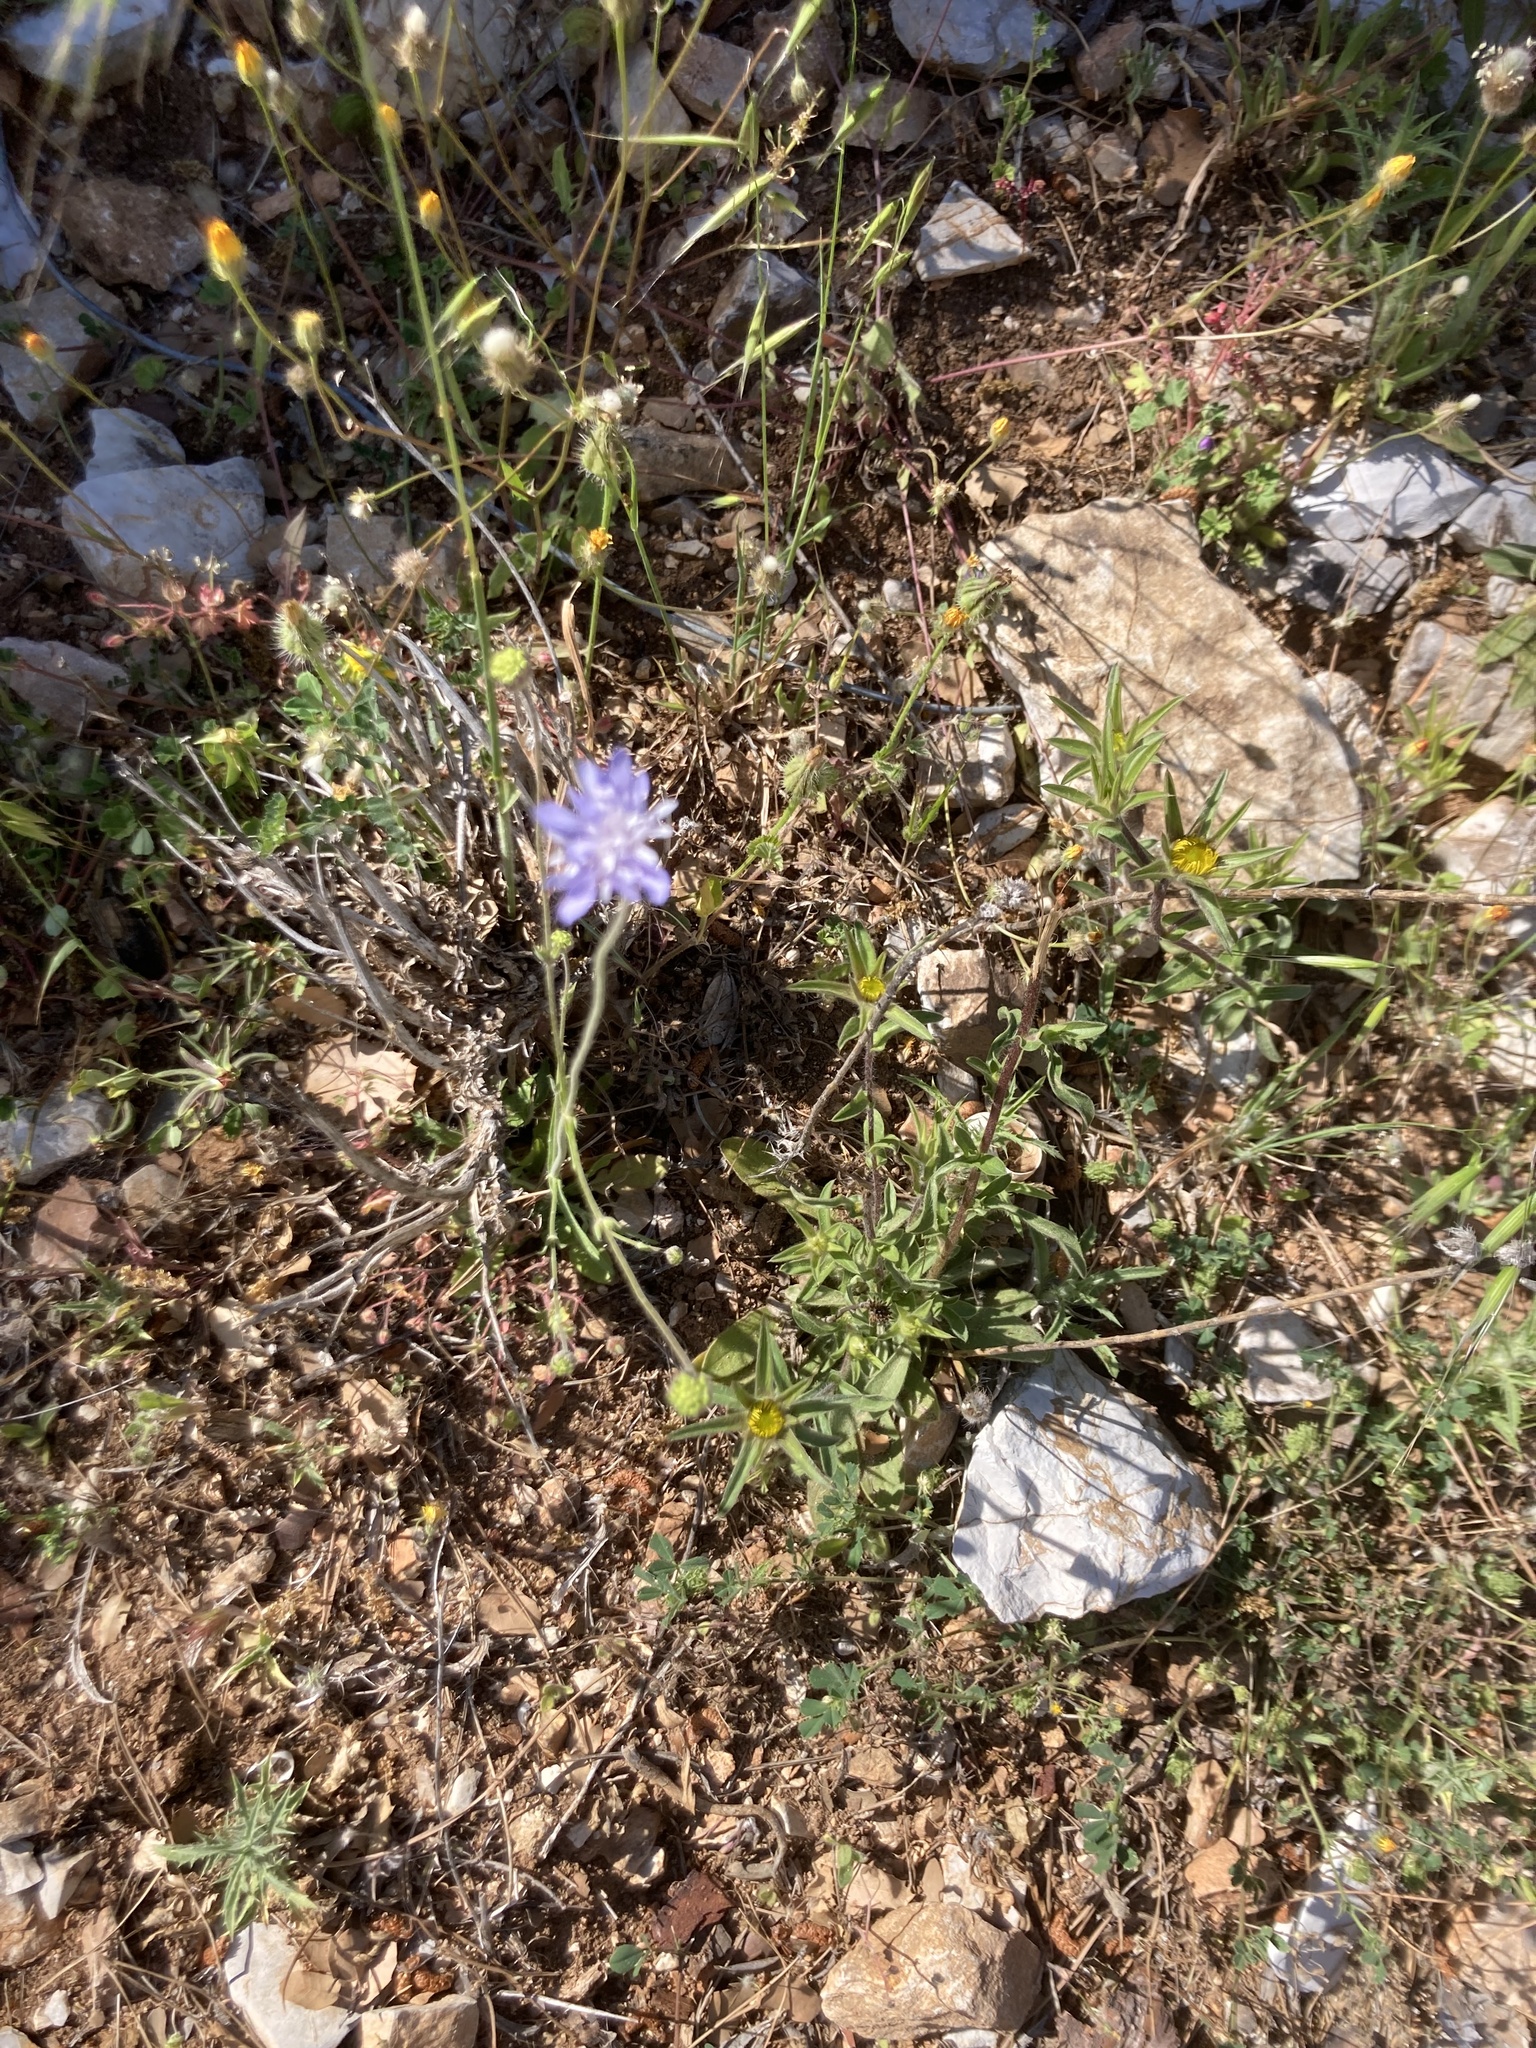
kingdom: Plantae
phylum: Tracheophyta
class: Magnoliopsida
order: Dipsacales
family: Caprifoliaceae
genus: Knautia
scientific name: Knautia integrifolia
